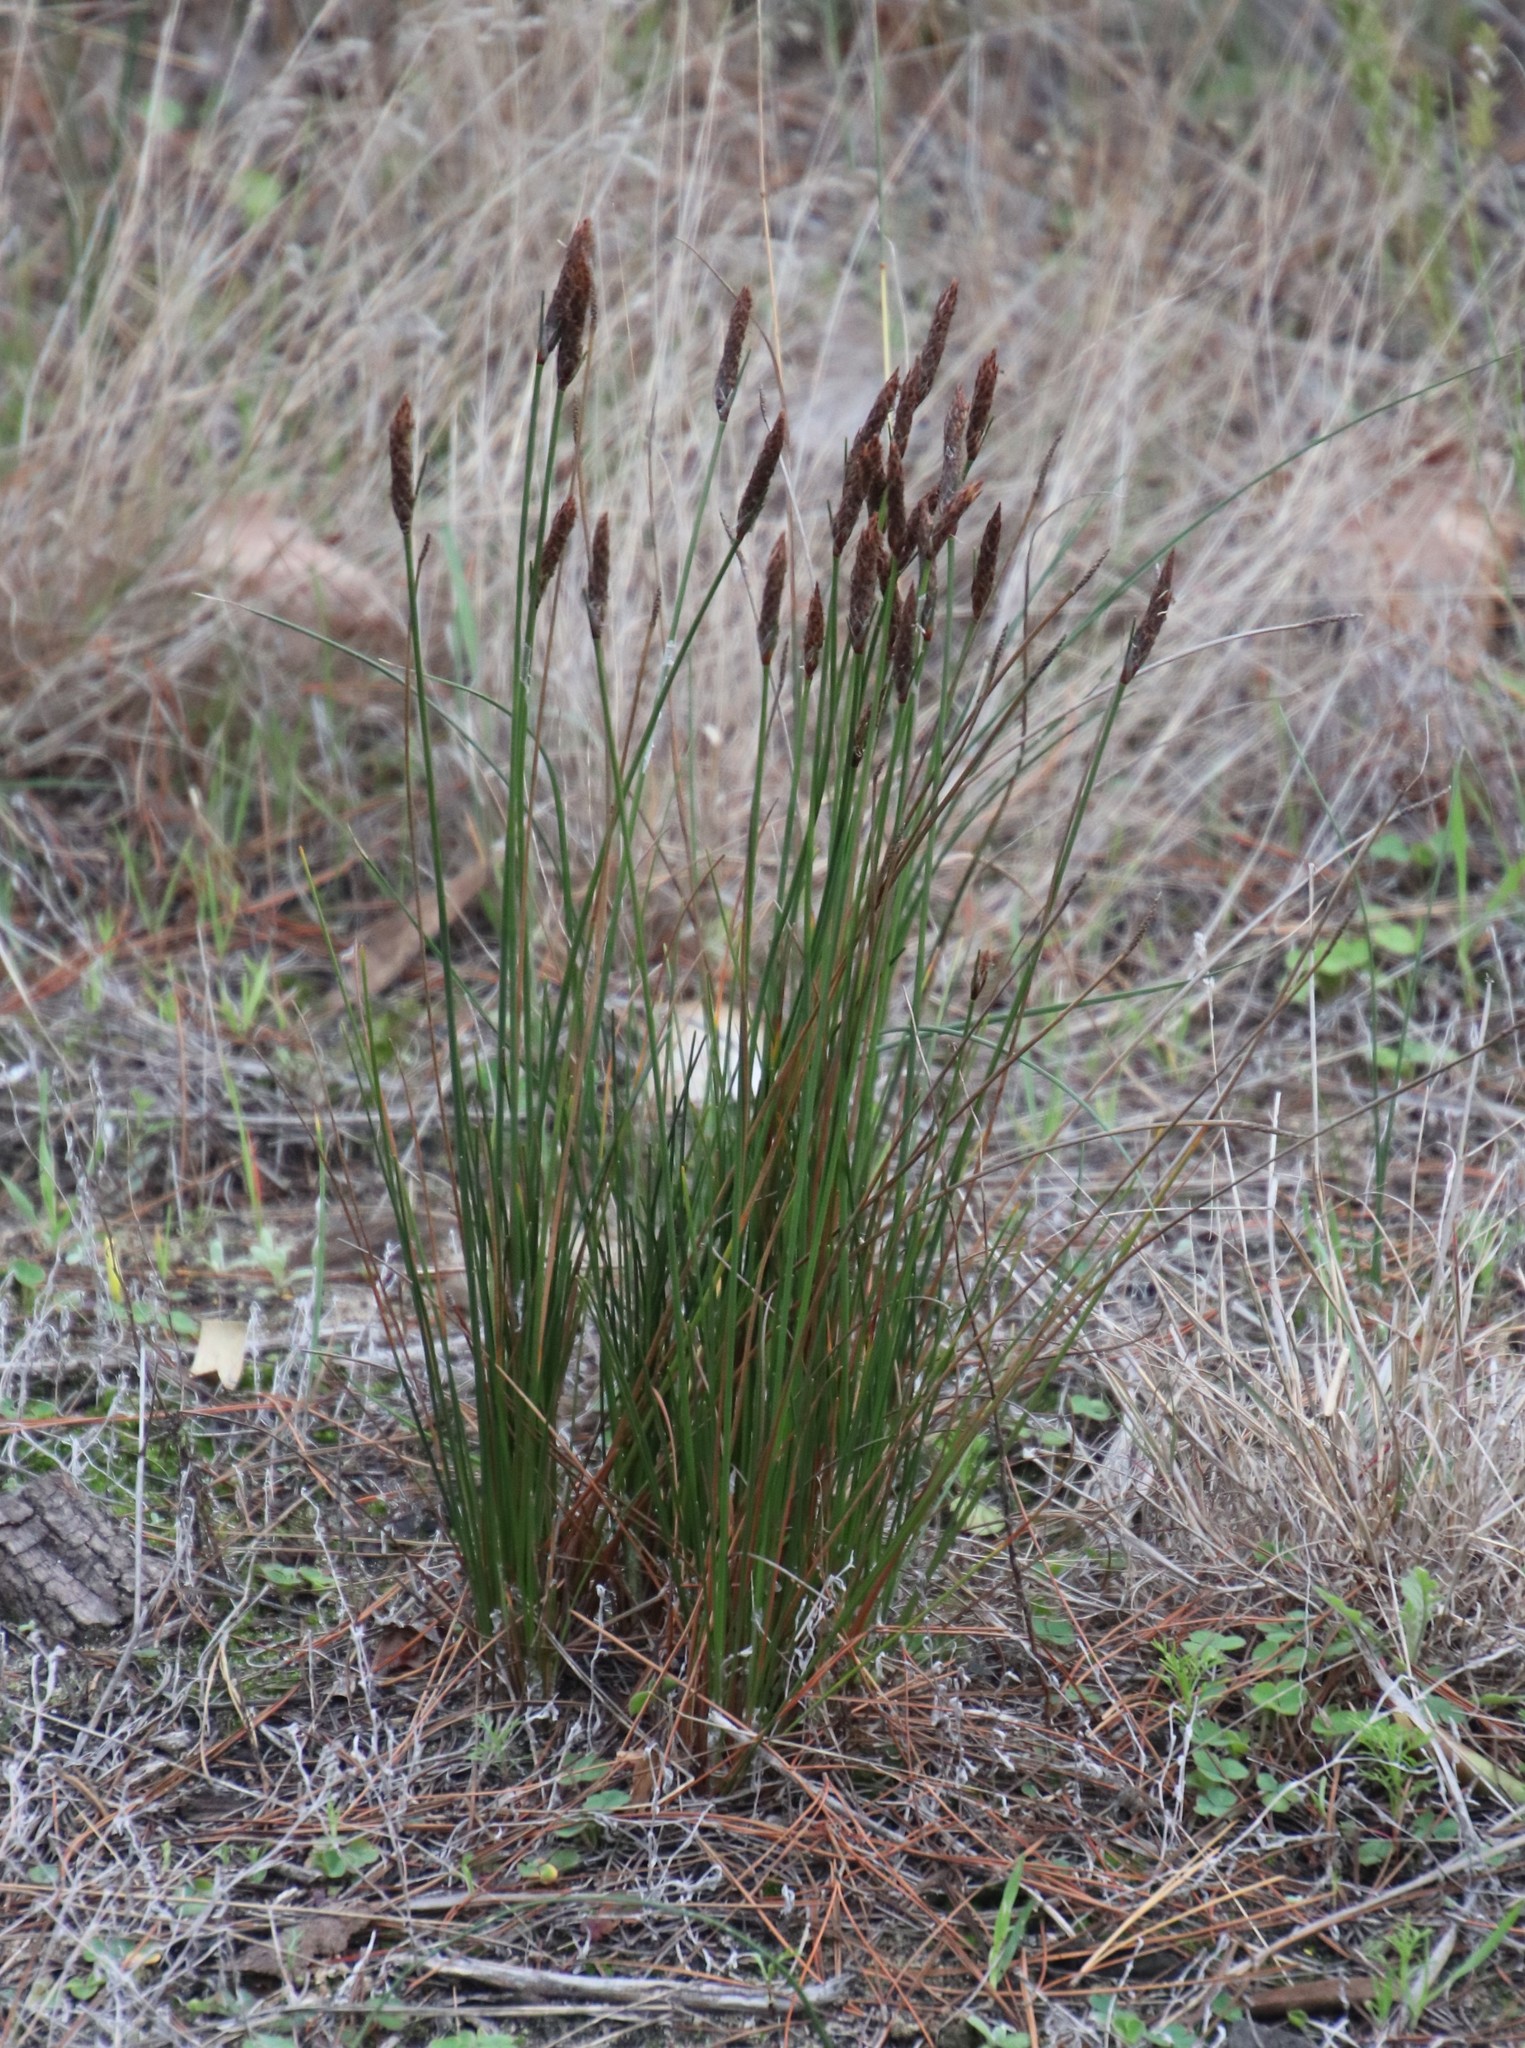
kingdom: Plantae
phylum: Tracheophyta
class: Liliopsida
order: Poales
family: Cyperaceae
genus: Ficinia
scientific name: Ficinia deusta
